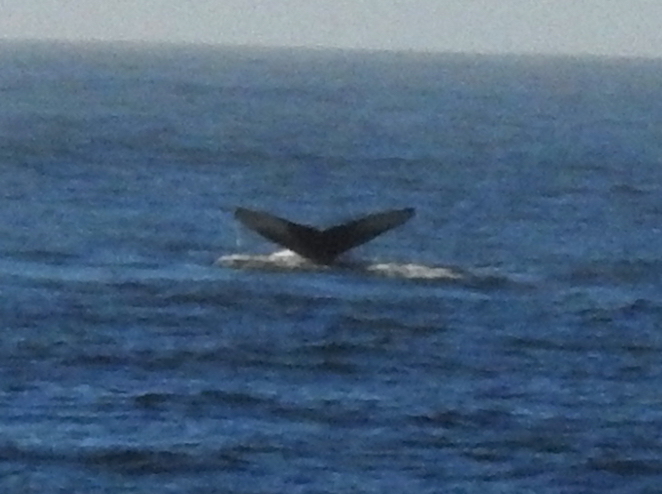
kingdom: Animalia
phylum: Chordata
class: Mammalia
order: Cetacea
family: Balaenopteridae
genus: Megaptera
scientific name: Megaptera novaeangliae
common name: Humpback whale
